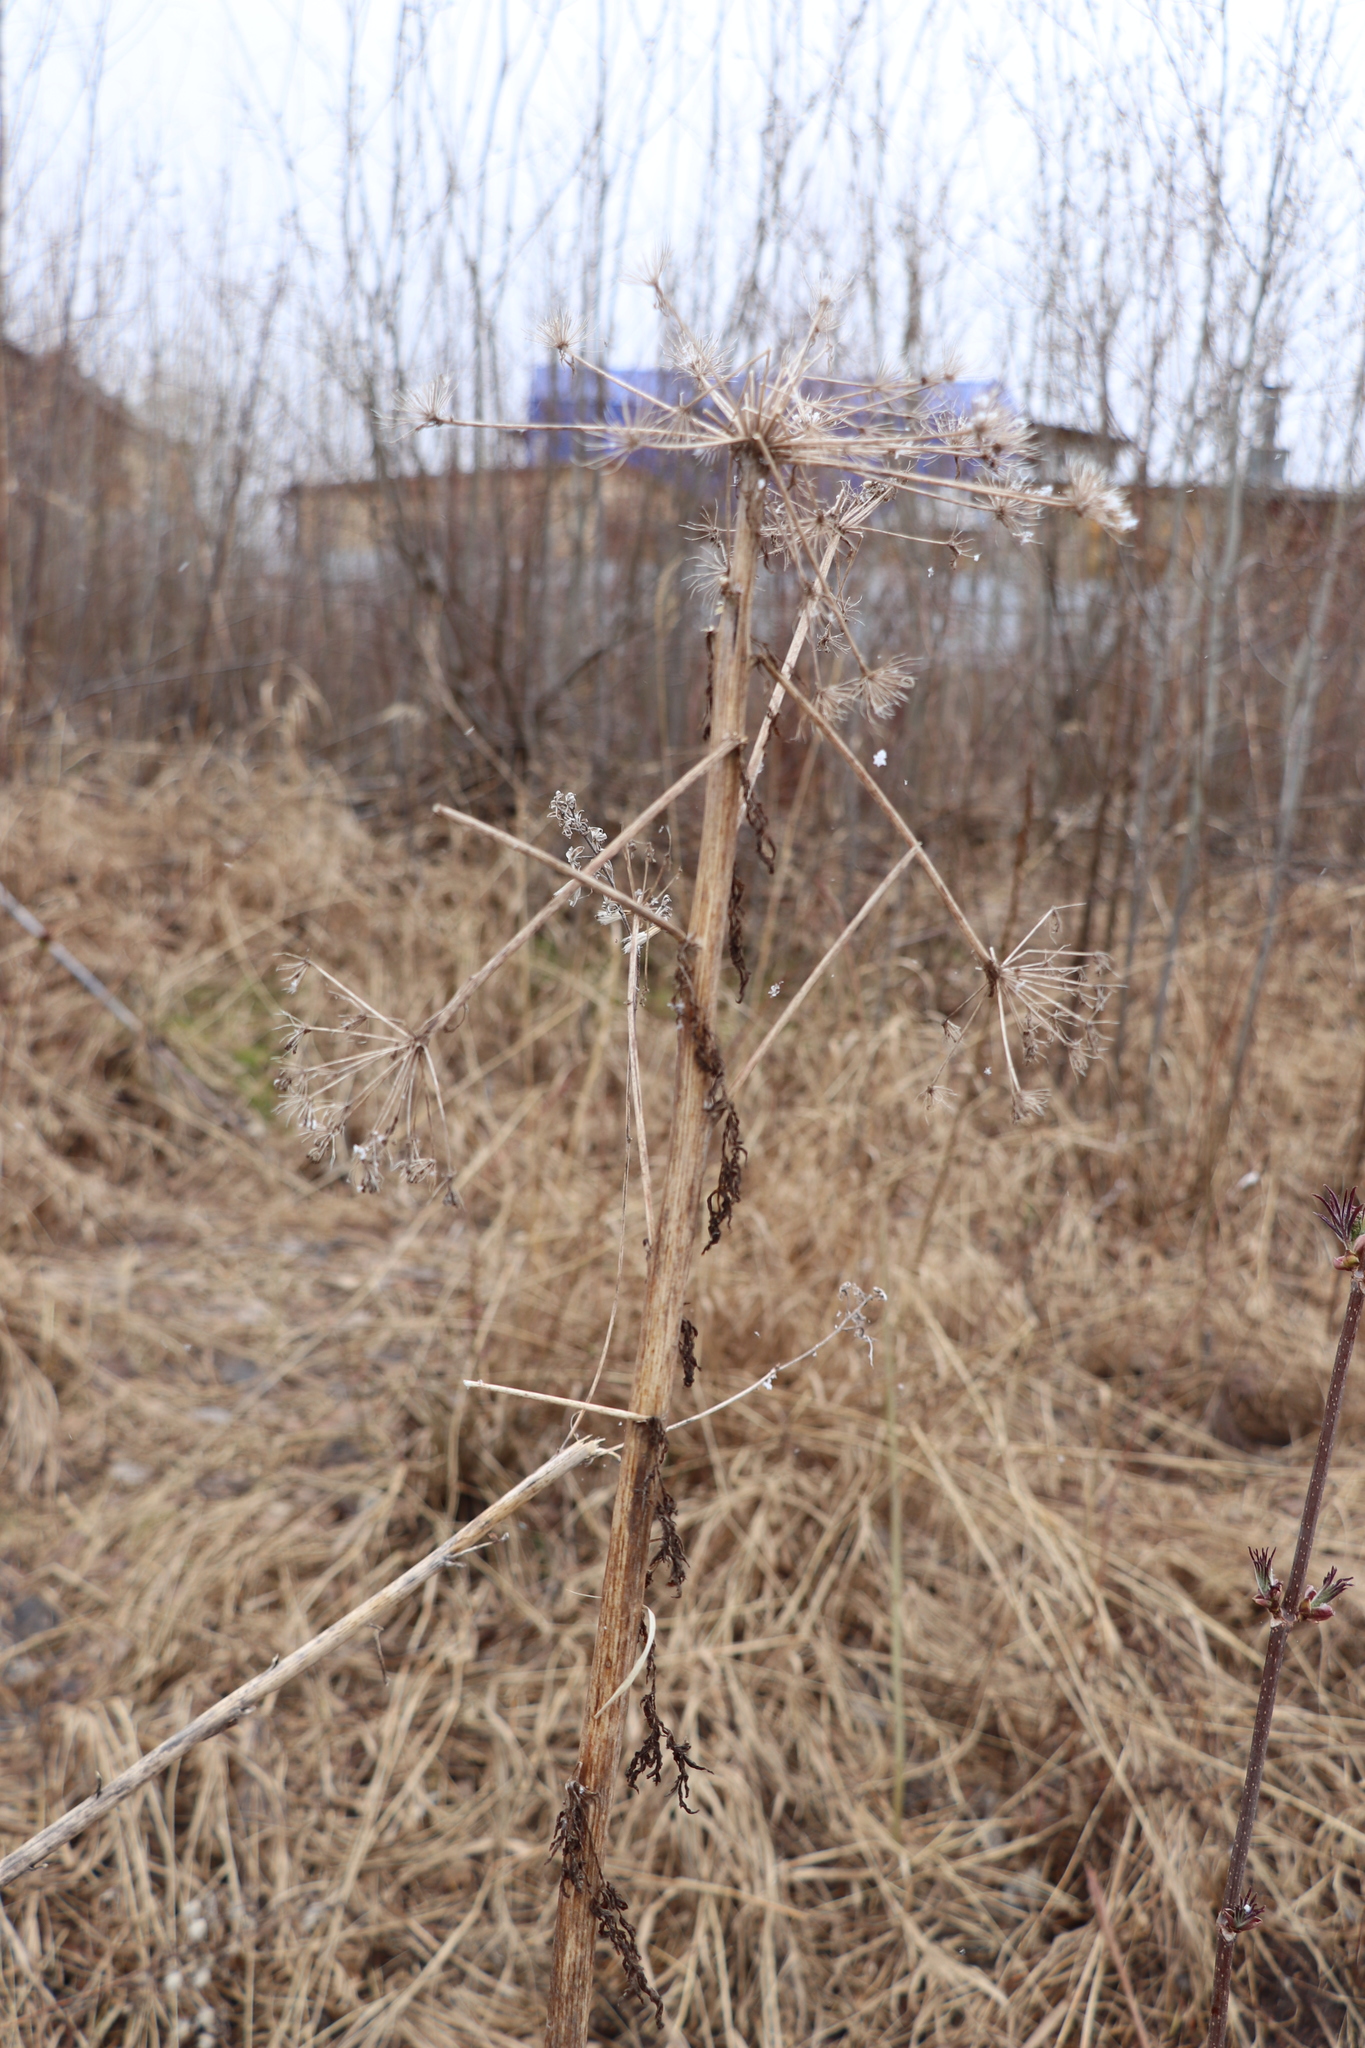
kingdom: Plantae
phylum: Tracheophyta
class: Magnoliopsida
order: Apiales
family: Apiaceae
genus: Anthriscus
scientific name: Anthriscus sylvestris
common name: Cow parsley
